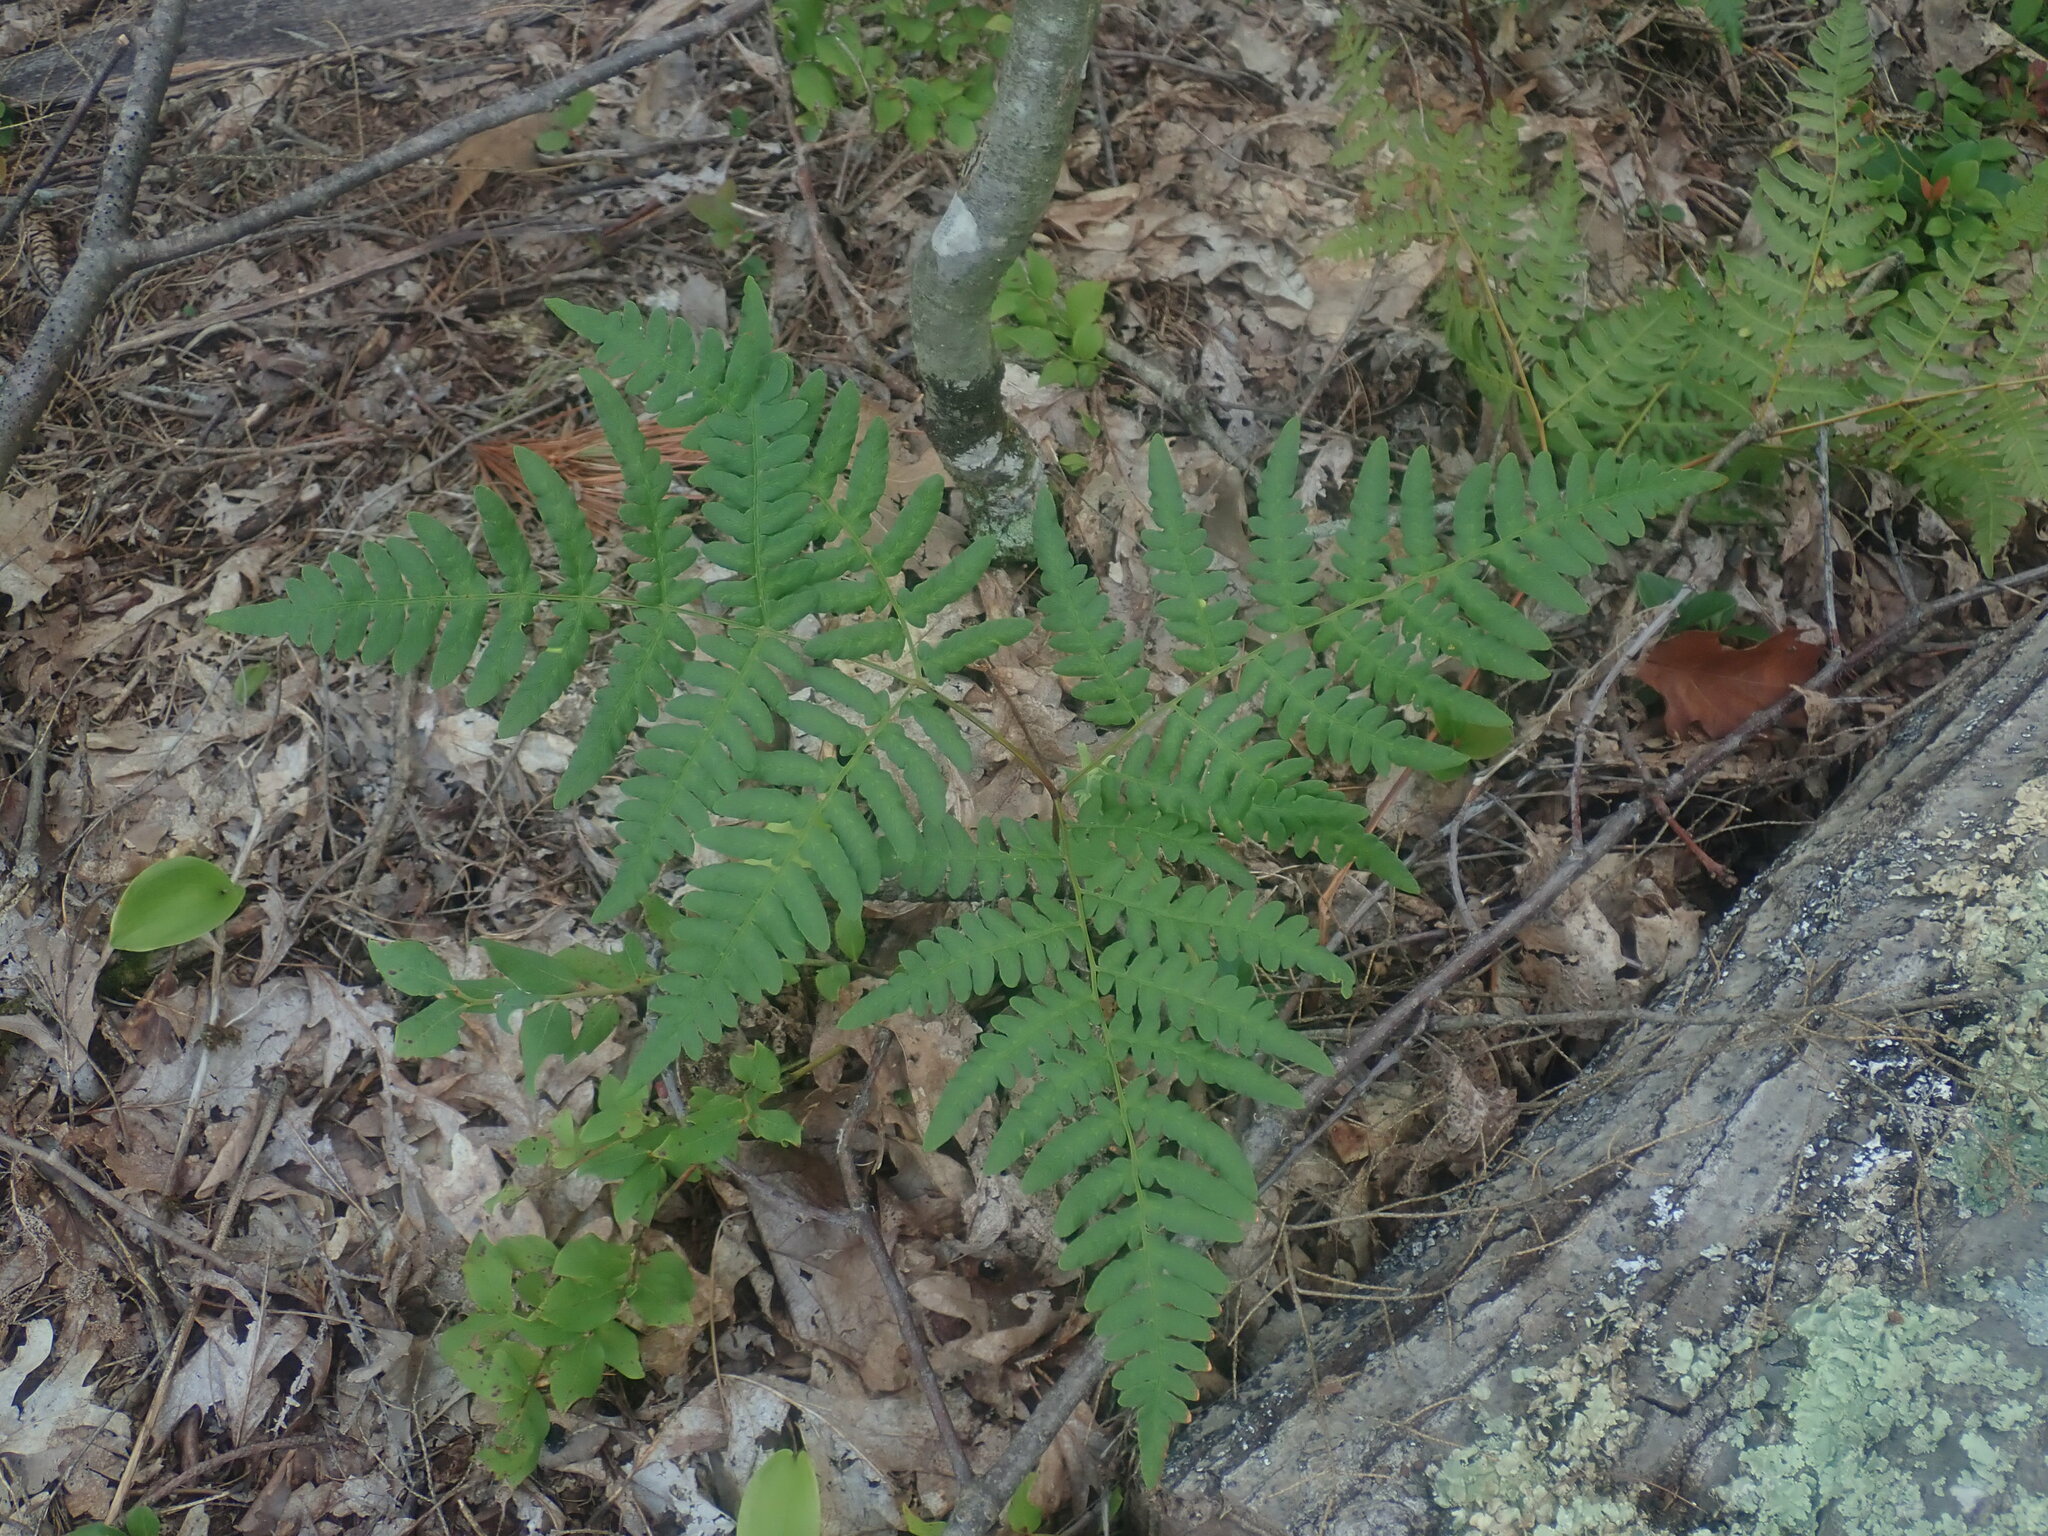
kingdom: Plantae
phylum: Tracheophyta
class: Polypodiopsida
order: Polypodiales
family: Dennstaedtiaceae
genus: Pteridium
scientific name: Pteridium aquilinum
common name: Bracken
